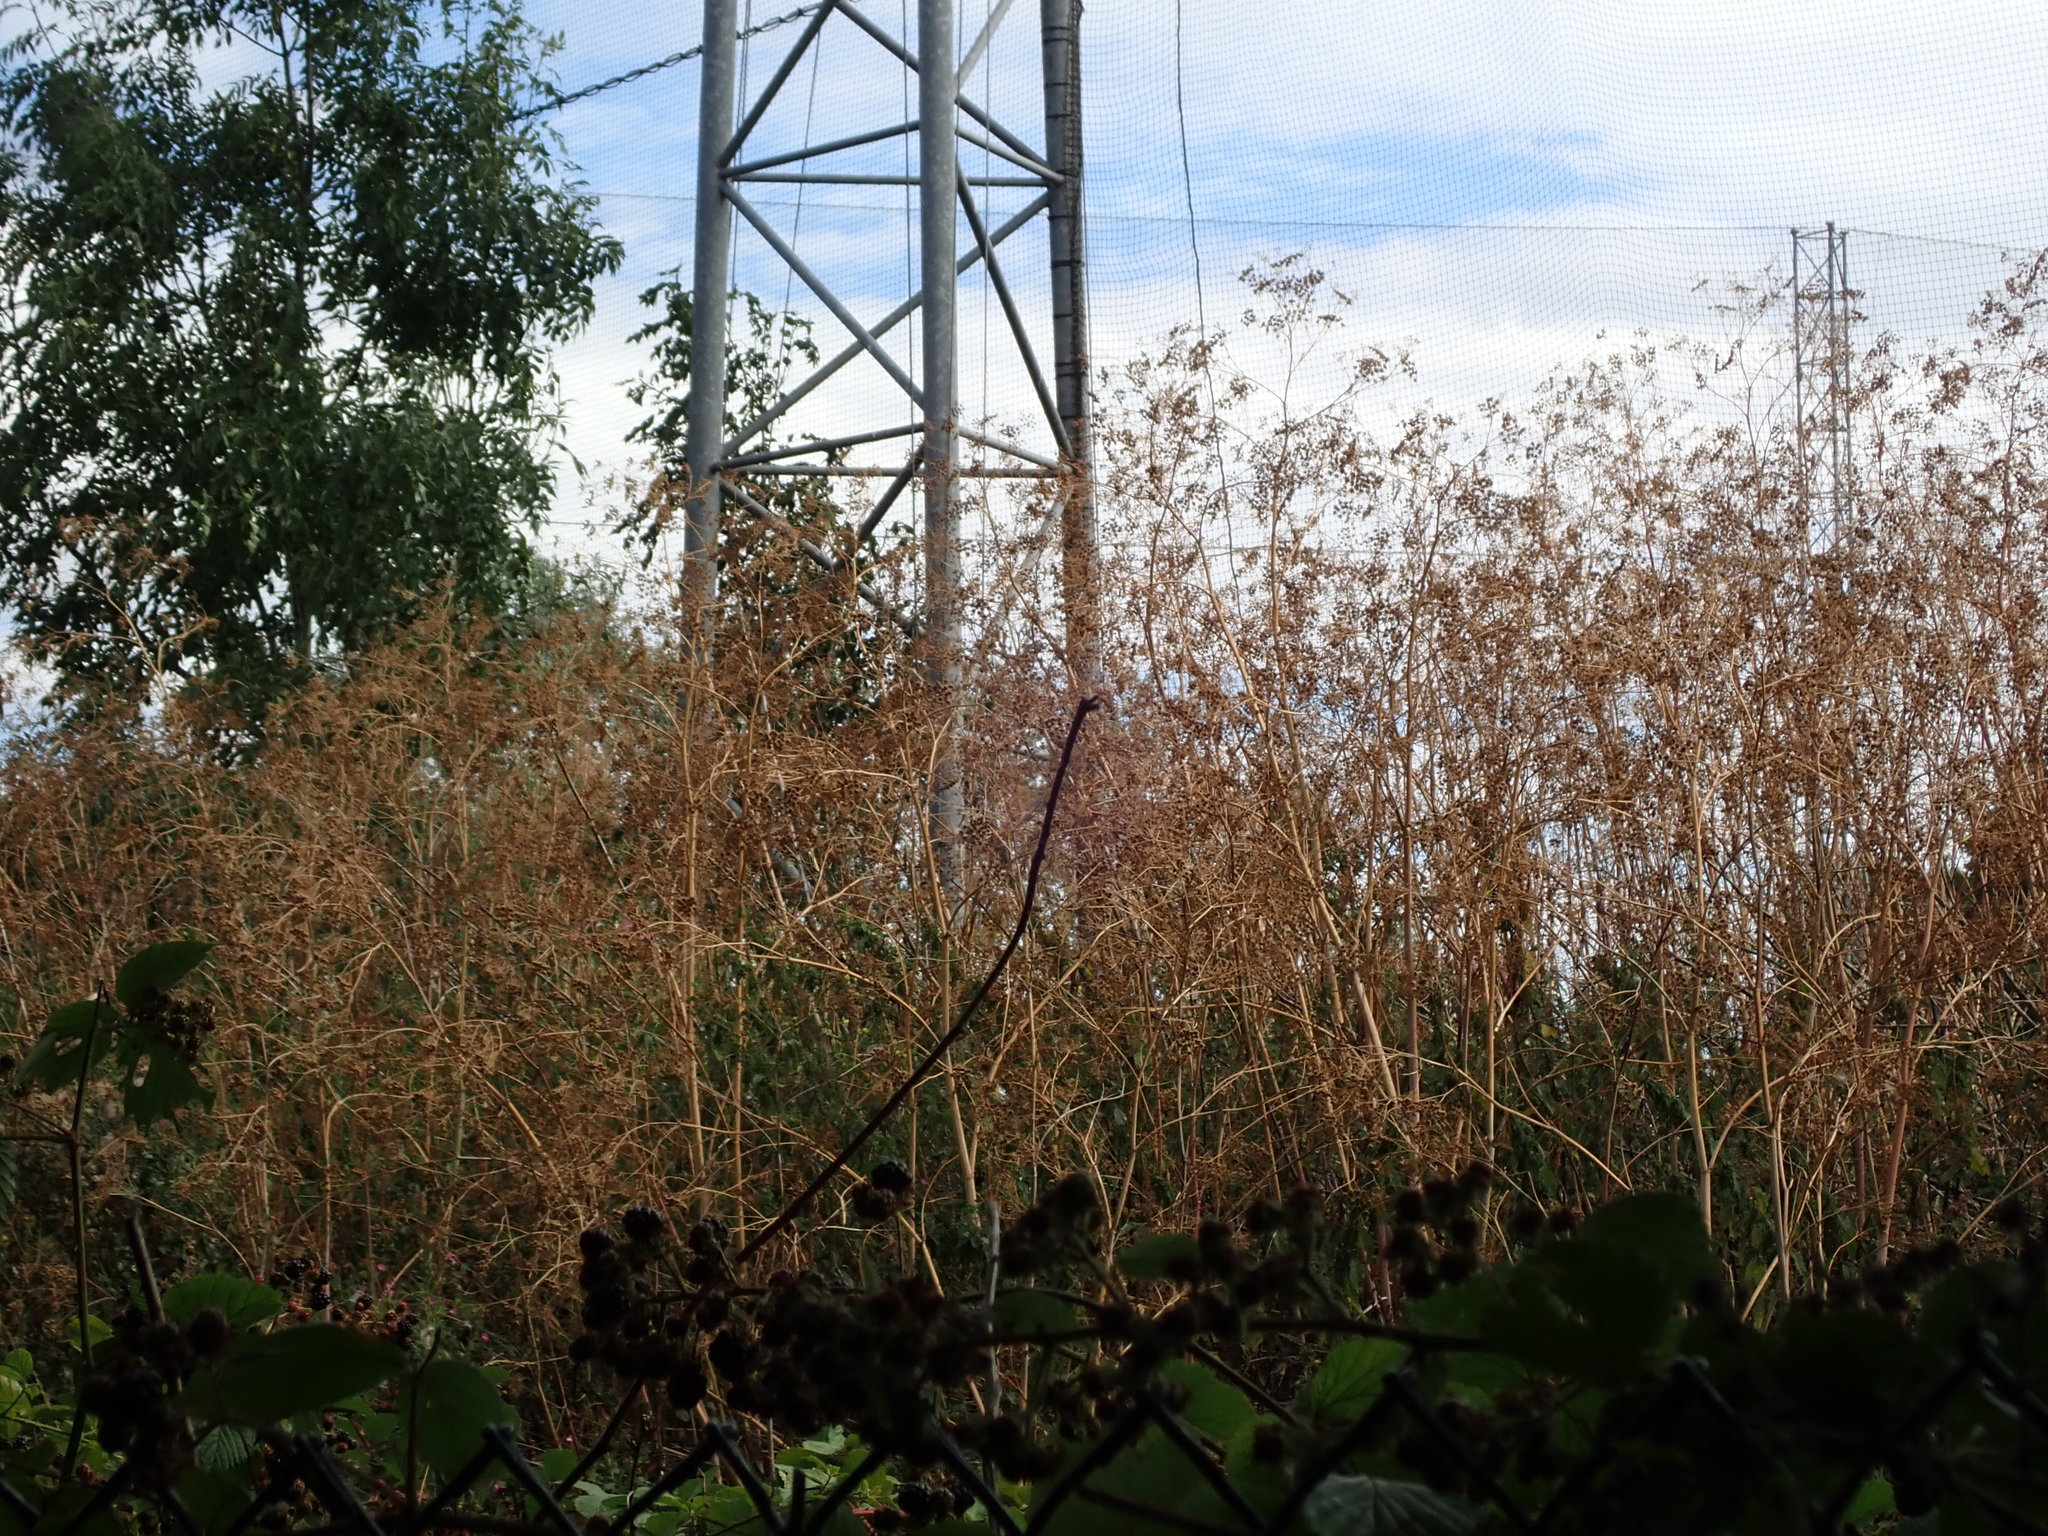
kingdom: Plantae
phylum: Tracheophyta
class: Magnoliopsida
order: Apiales
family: Apiaceae
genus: Conium
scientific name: Conium maculatum
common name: Hemlock
